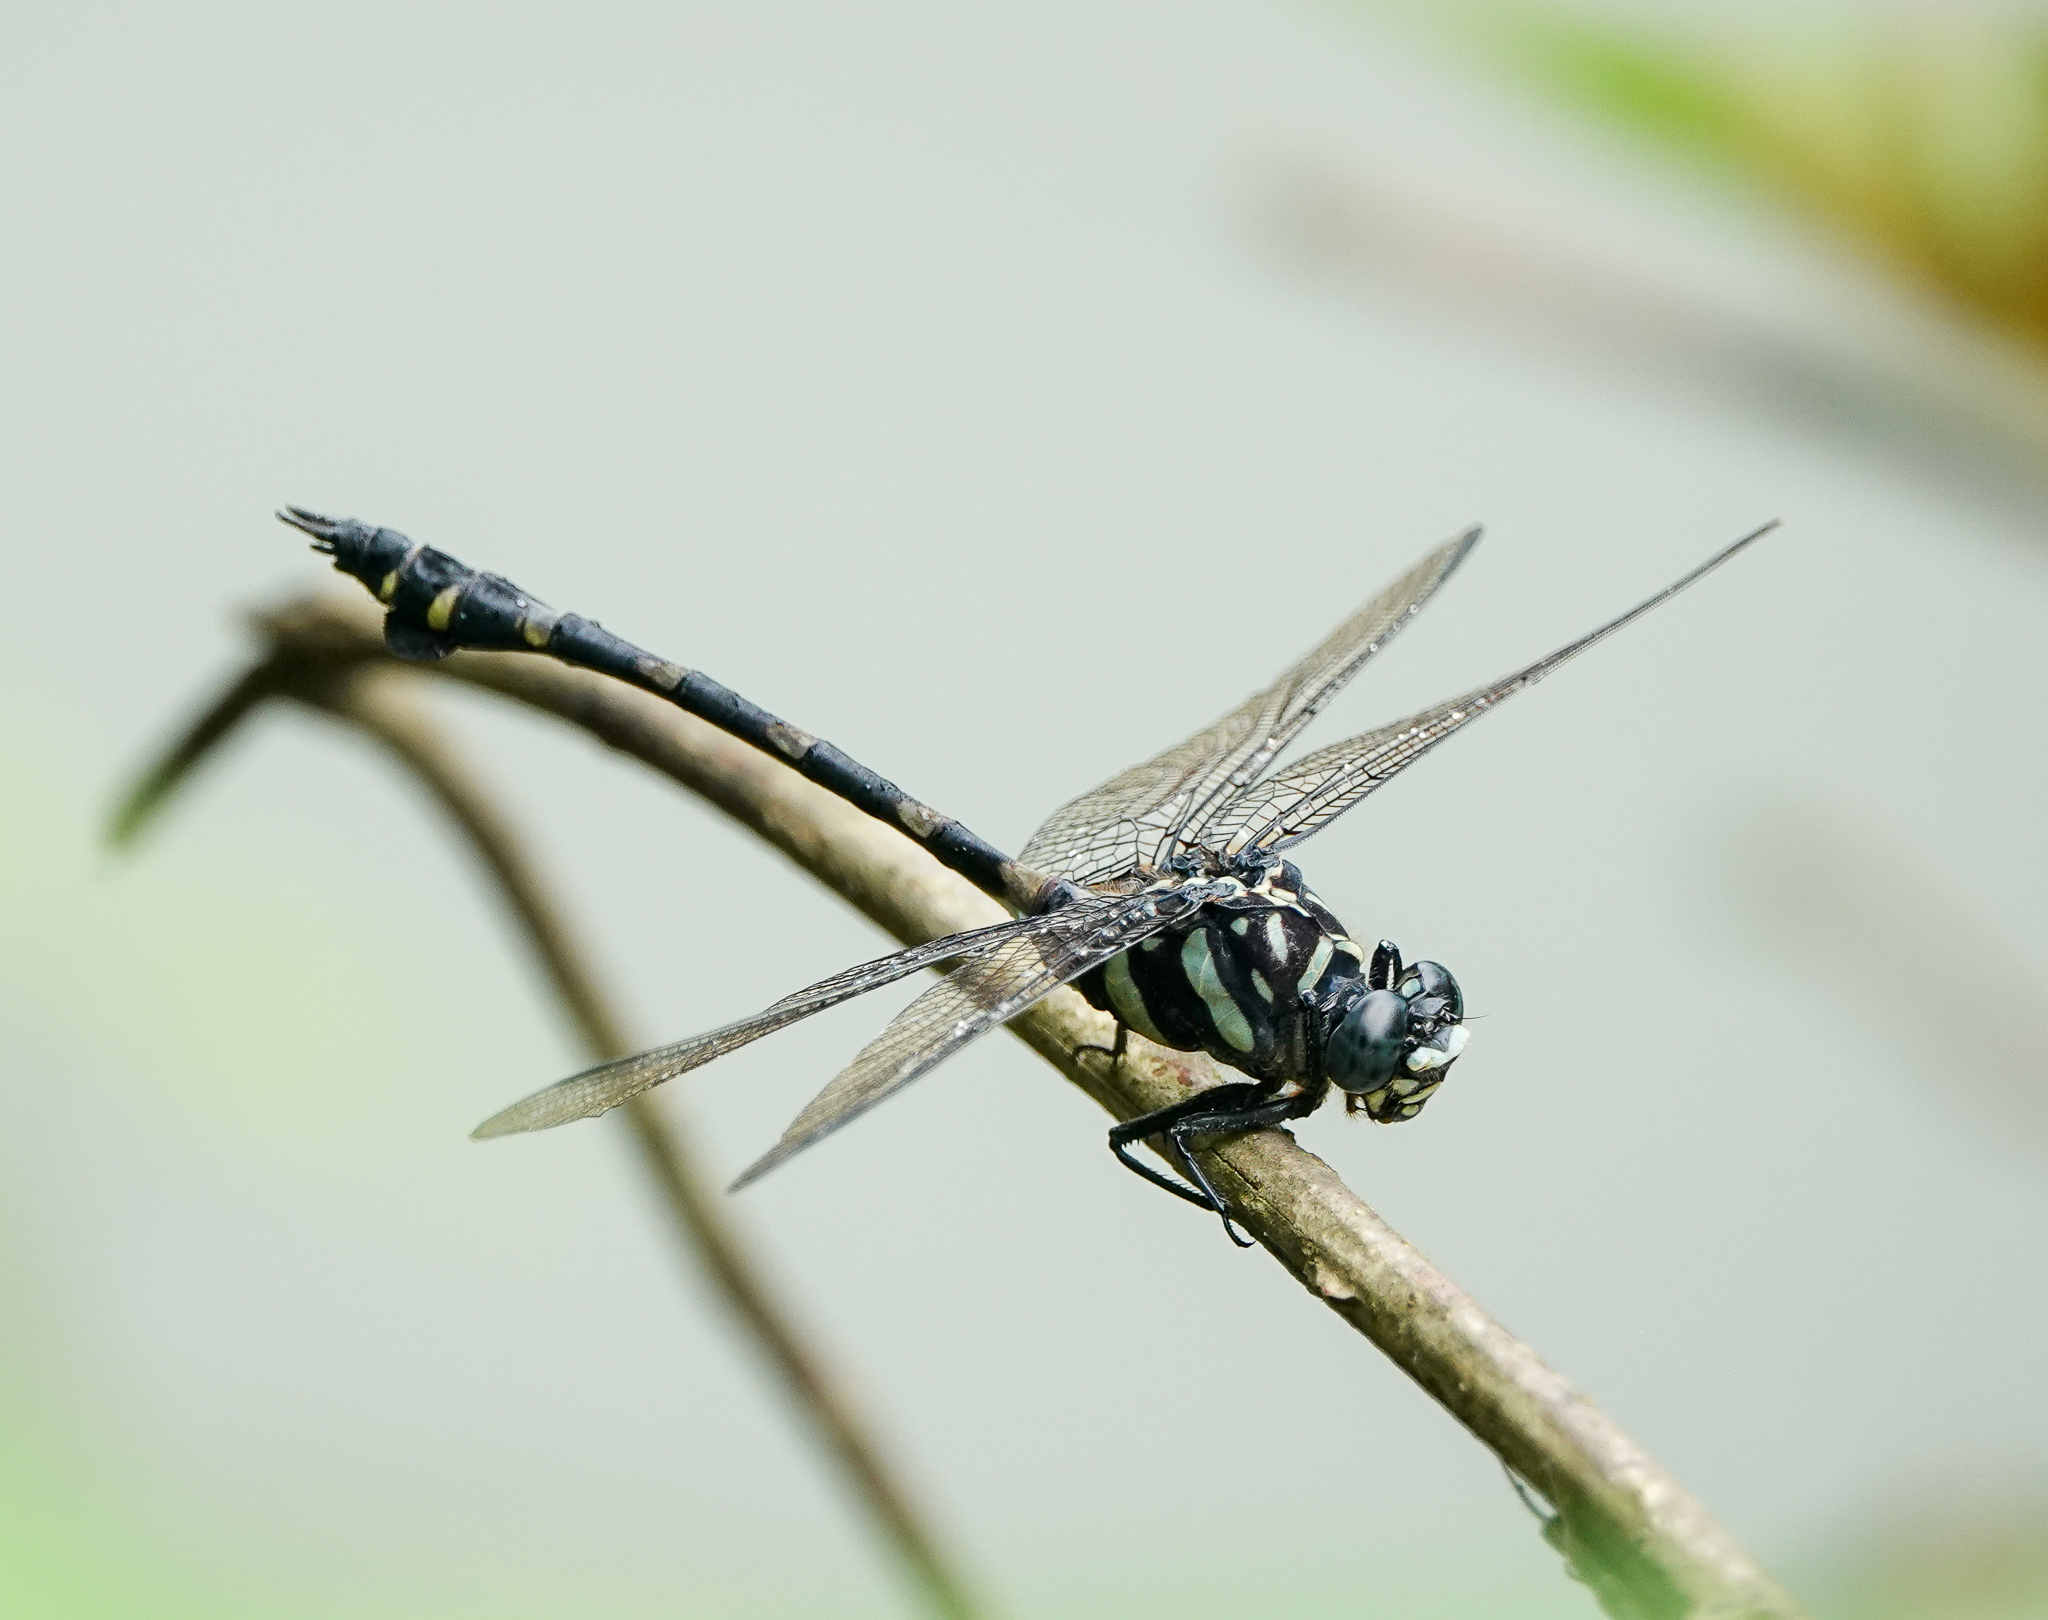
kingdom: Animalia
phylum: Arthropoda
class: Insecta
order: Odonata
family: Gomphidae
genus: Ictinogomphus
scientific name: Ictinogomphus decoratus
